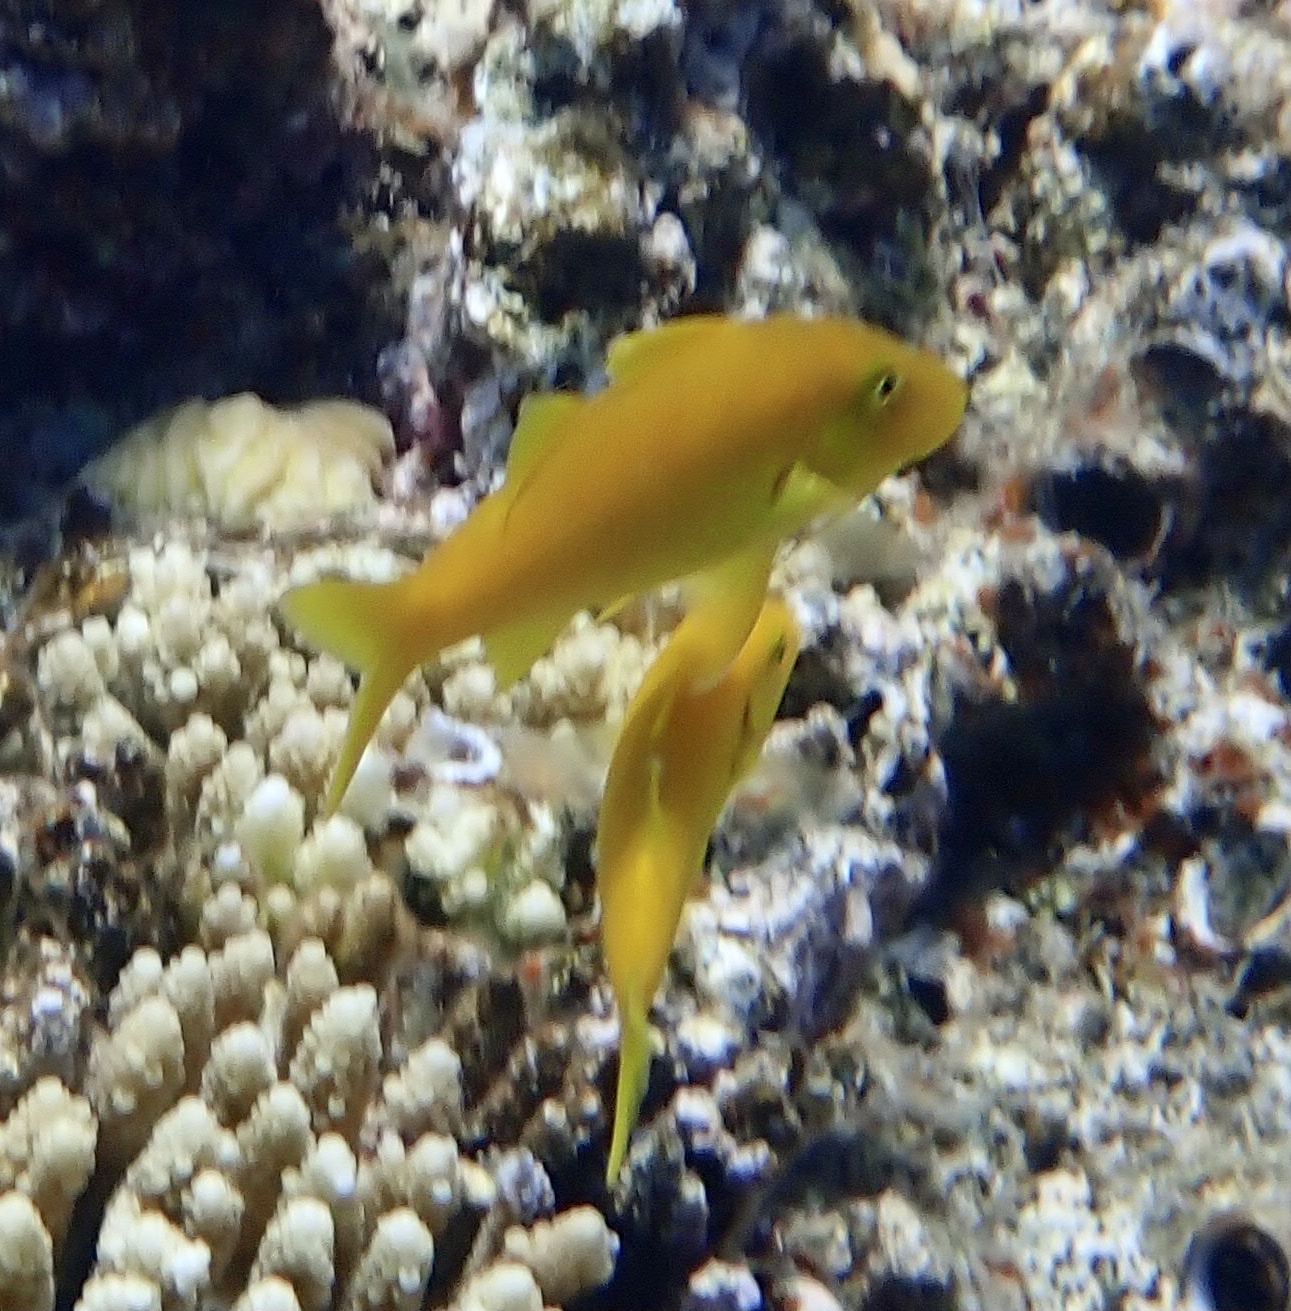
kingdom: Animalia
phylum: Chordata
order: Perciformes
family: Mullidae
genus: Parupeneus
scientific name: Parupeneus cyclostomus
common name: Goldsaddle goatfish
